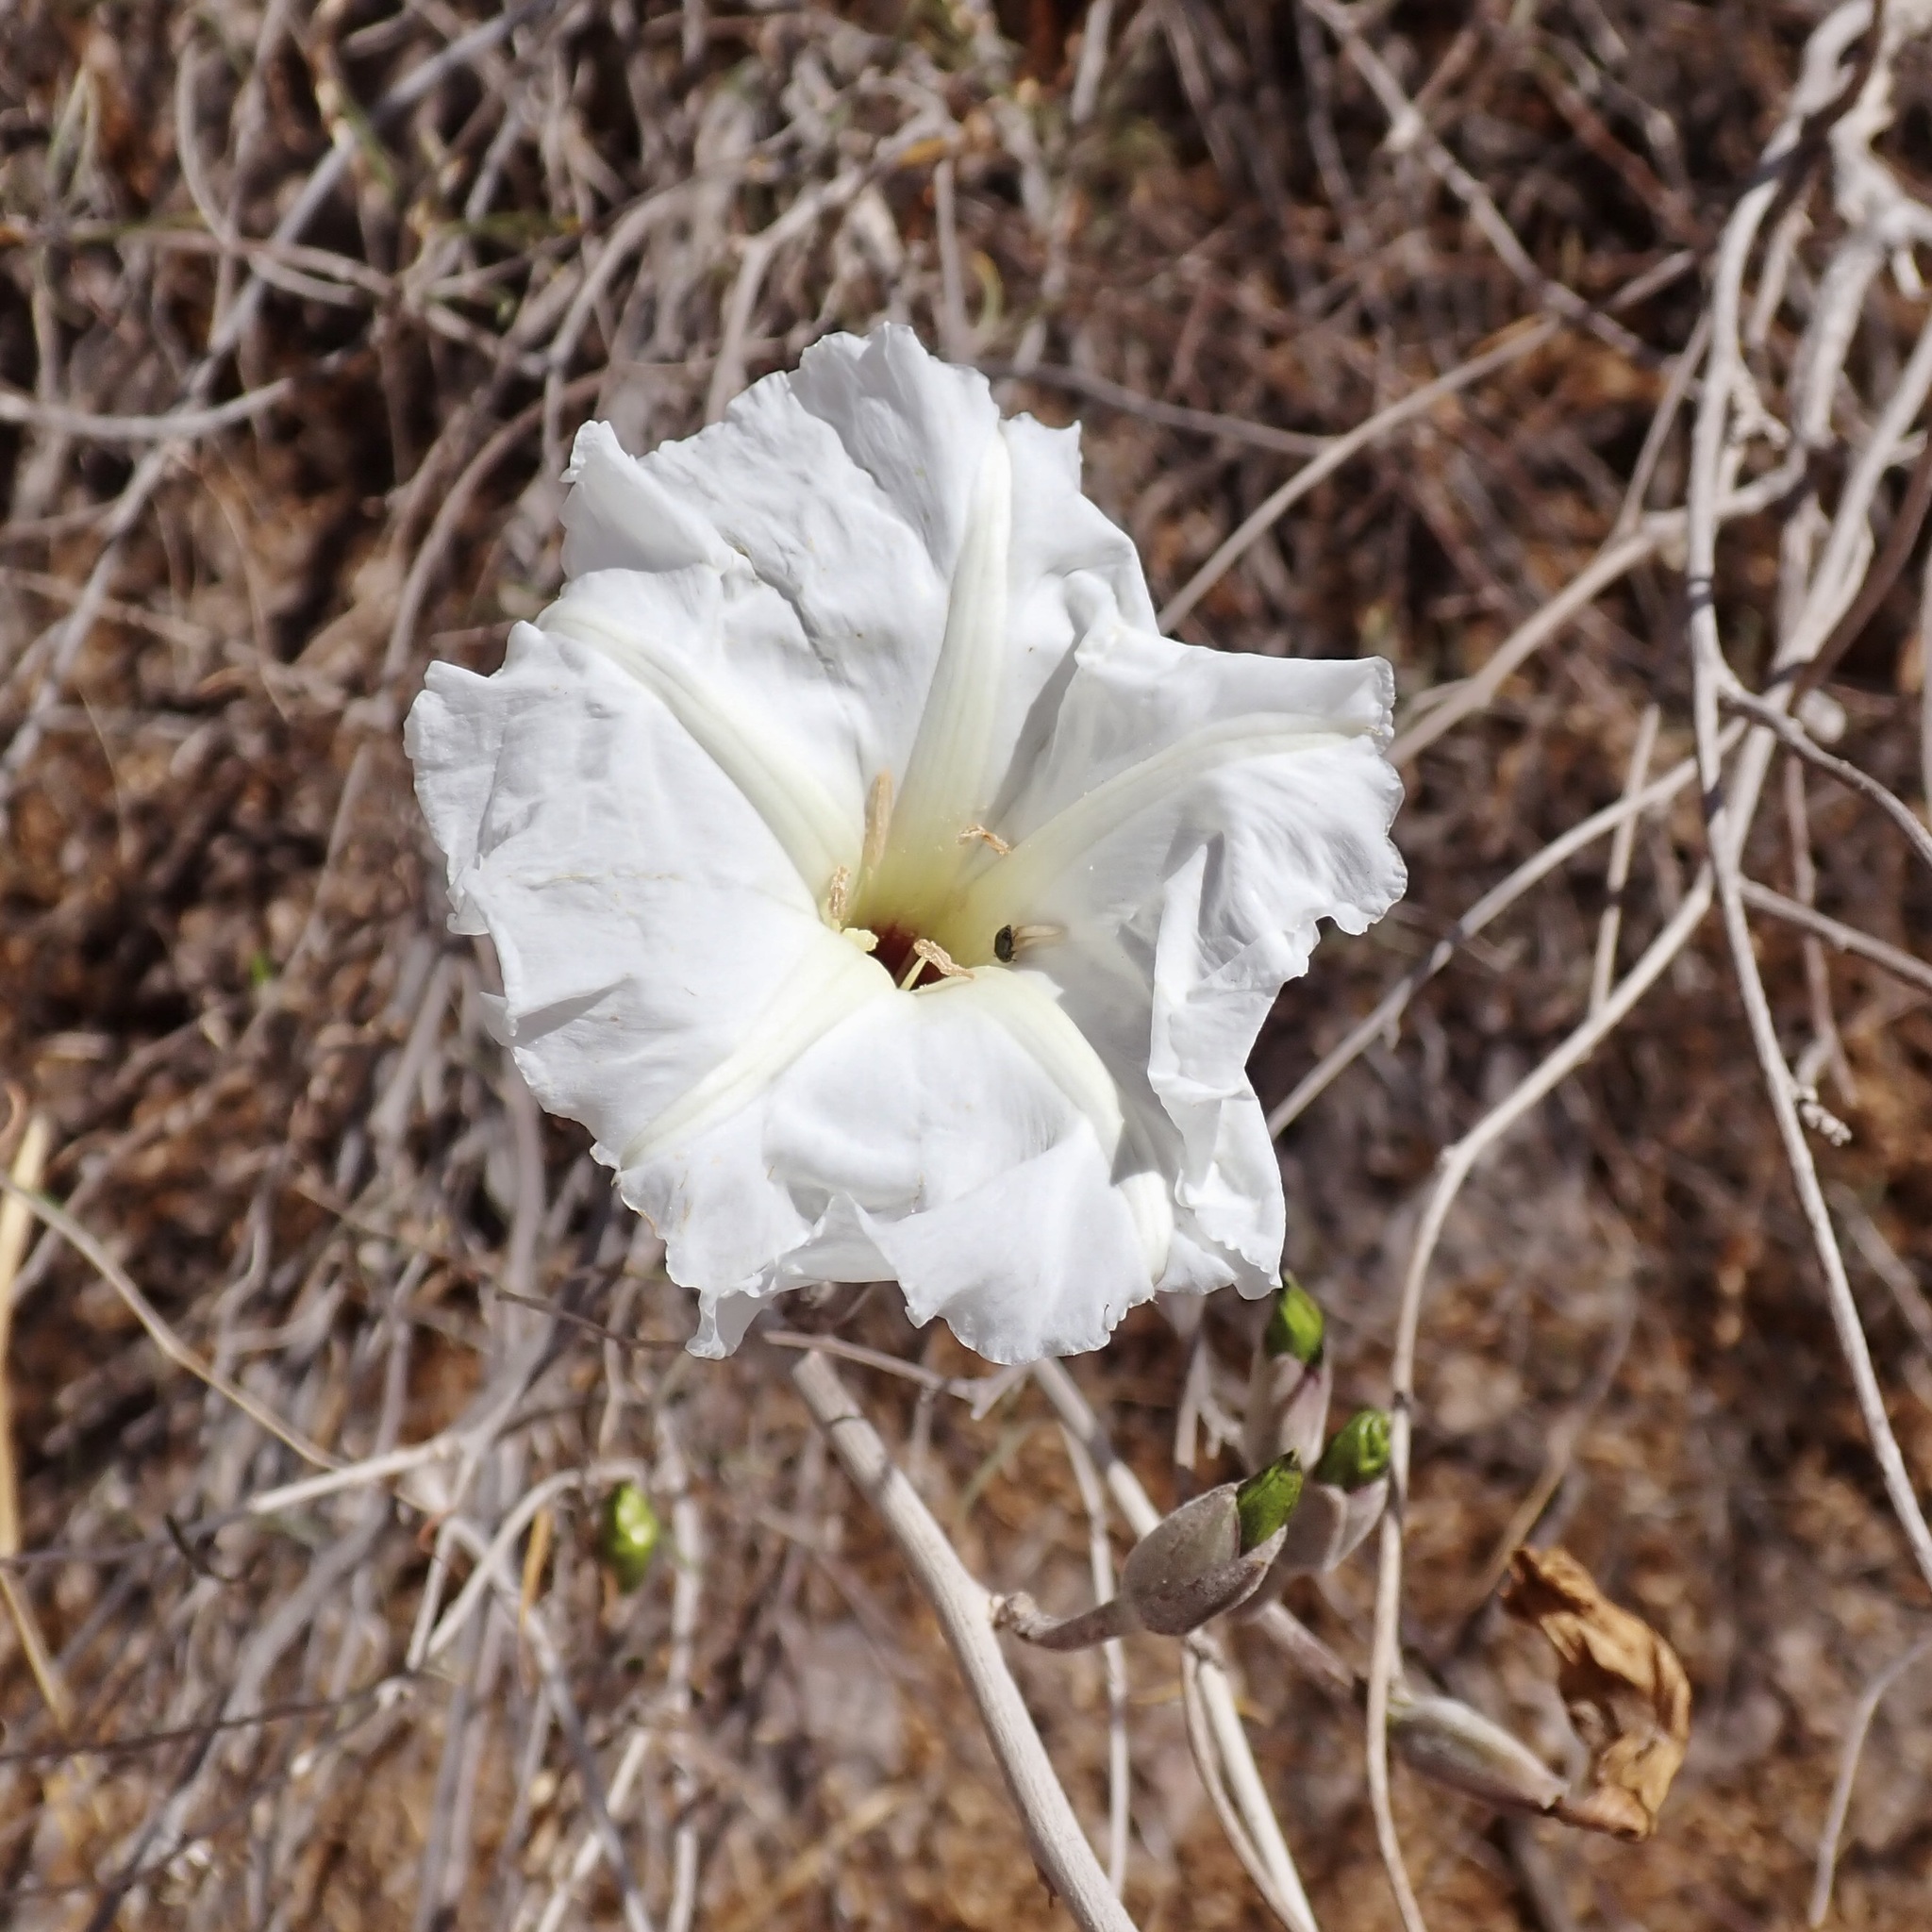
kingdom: Plantae
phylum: Tracheophyta
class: Magnoliopsida
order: Solanales
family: Convolvulaceae
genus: Ipomoea
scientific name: Ipomoea seaania
